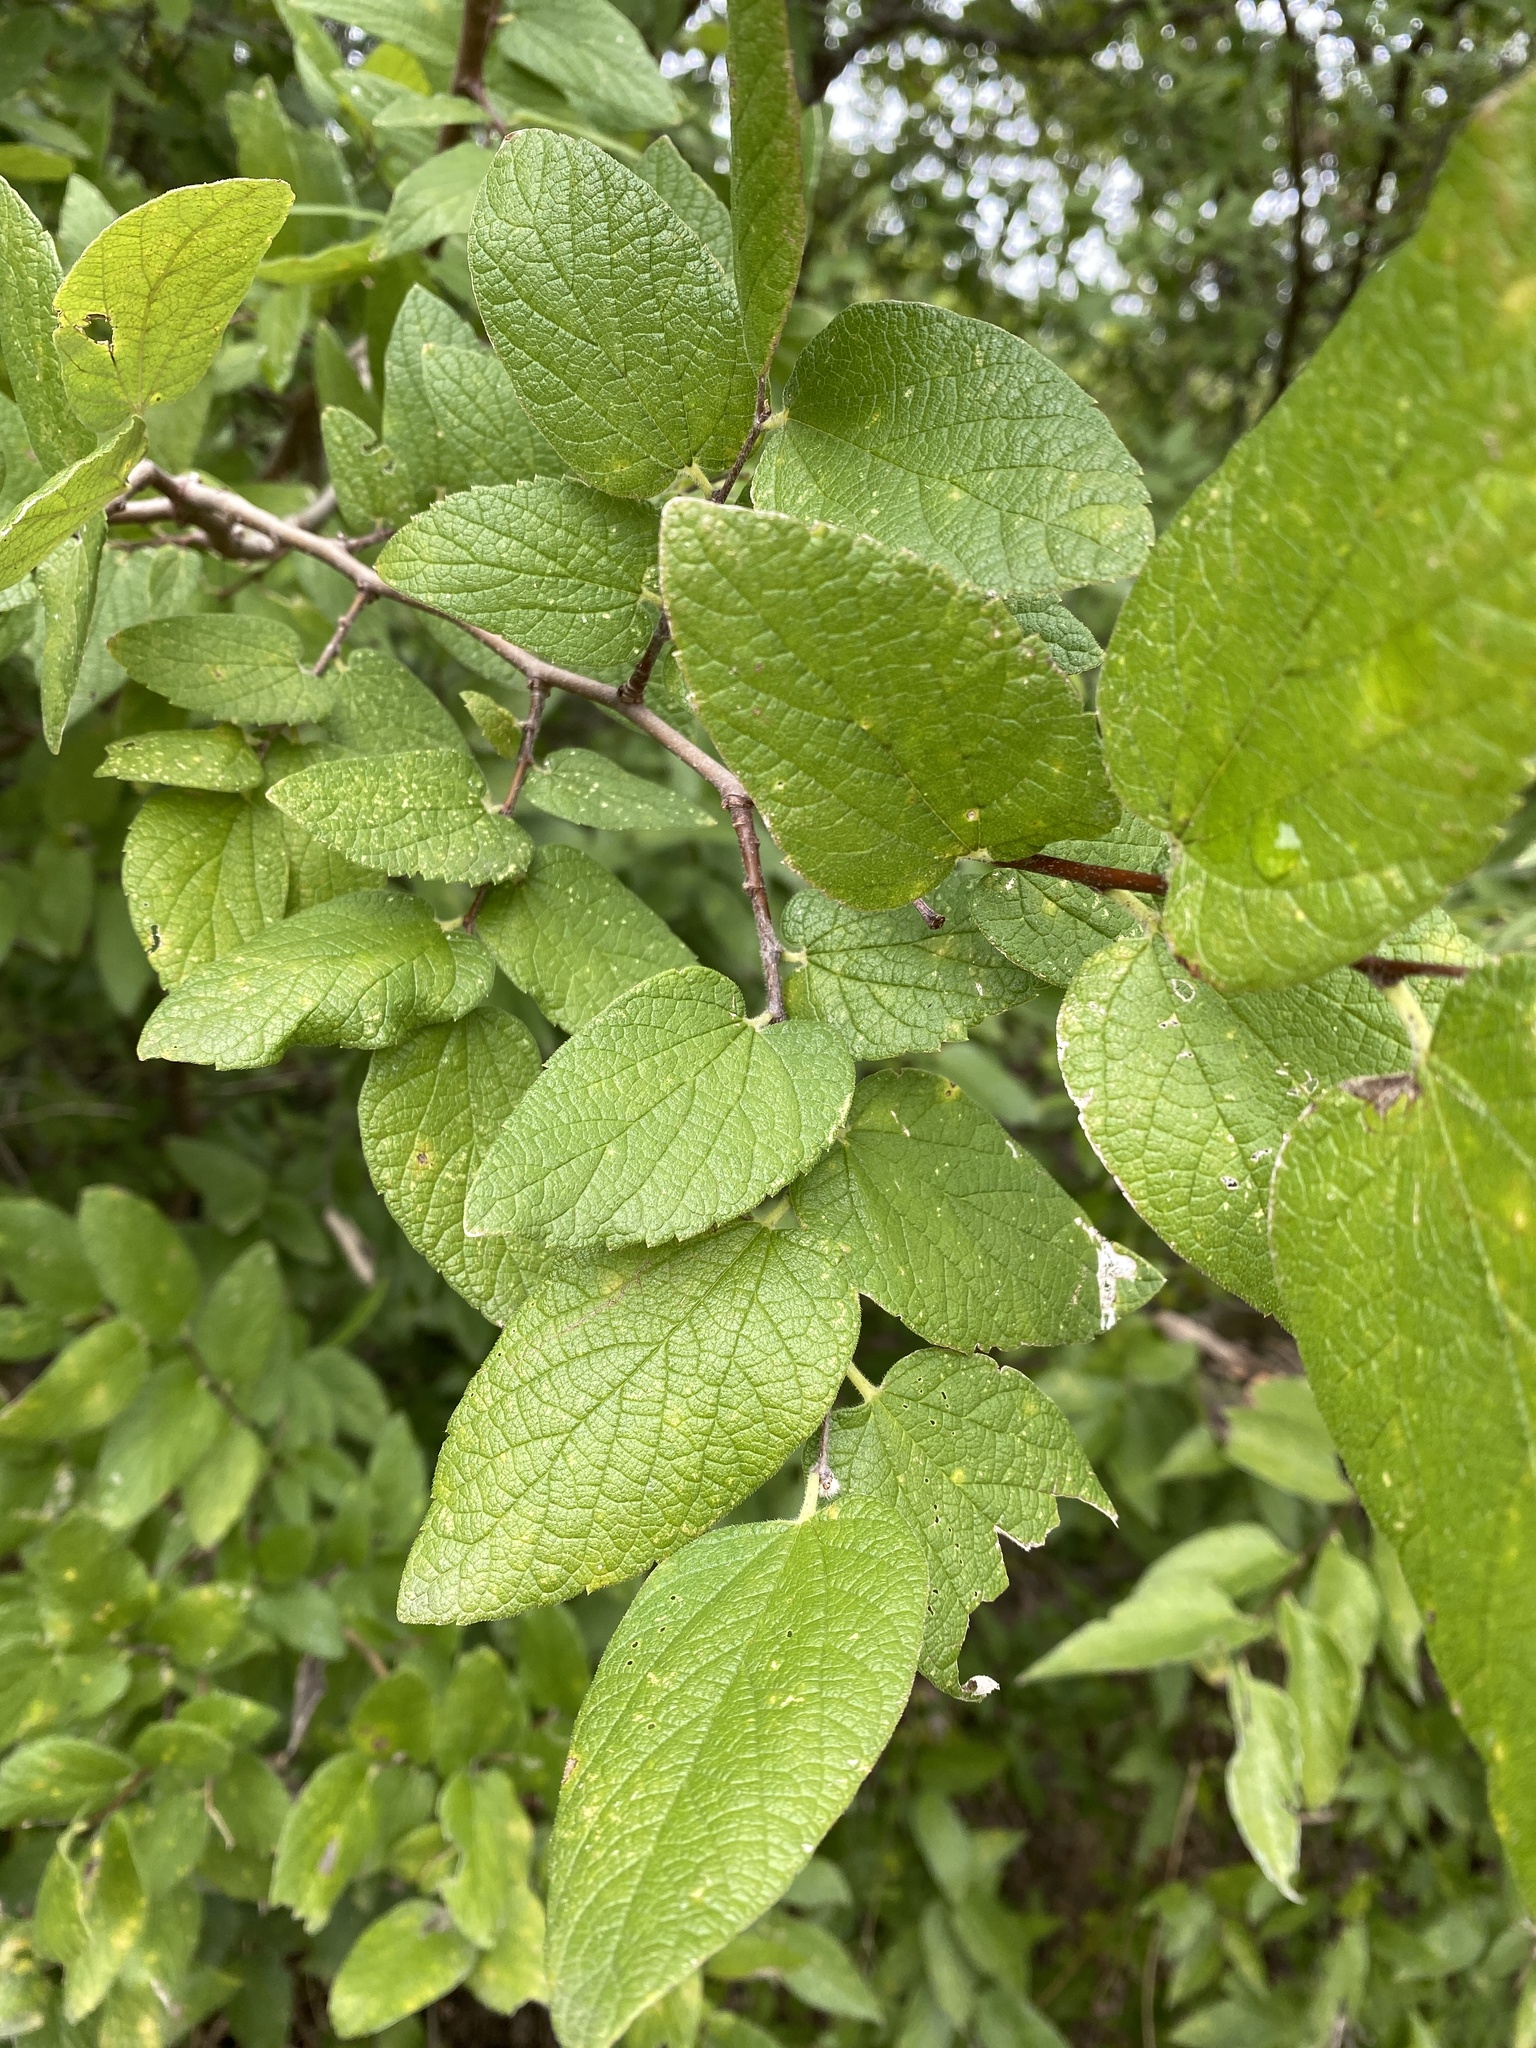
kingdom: Plantae
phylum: Tracheophyta
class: Magnoliopsida
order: Rosales
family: Cannabaceae
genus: Celtis
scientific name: Celtis reticulata
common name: Netleaf hackberry
